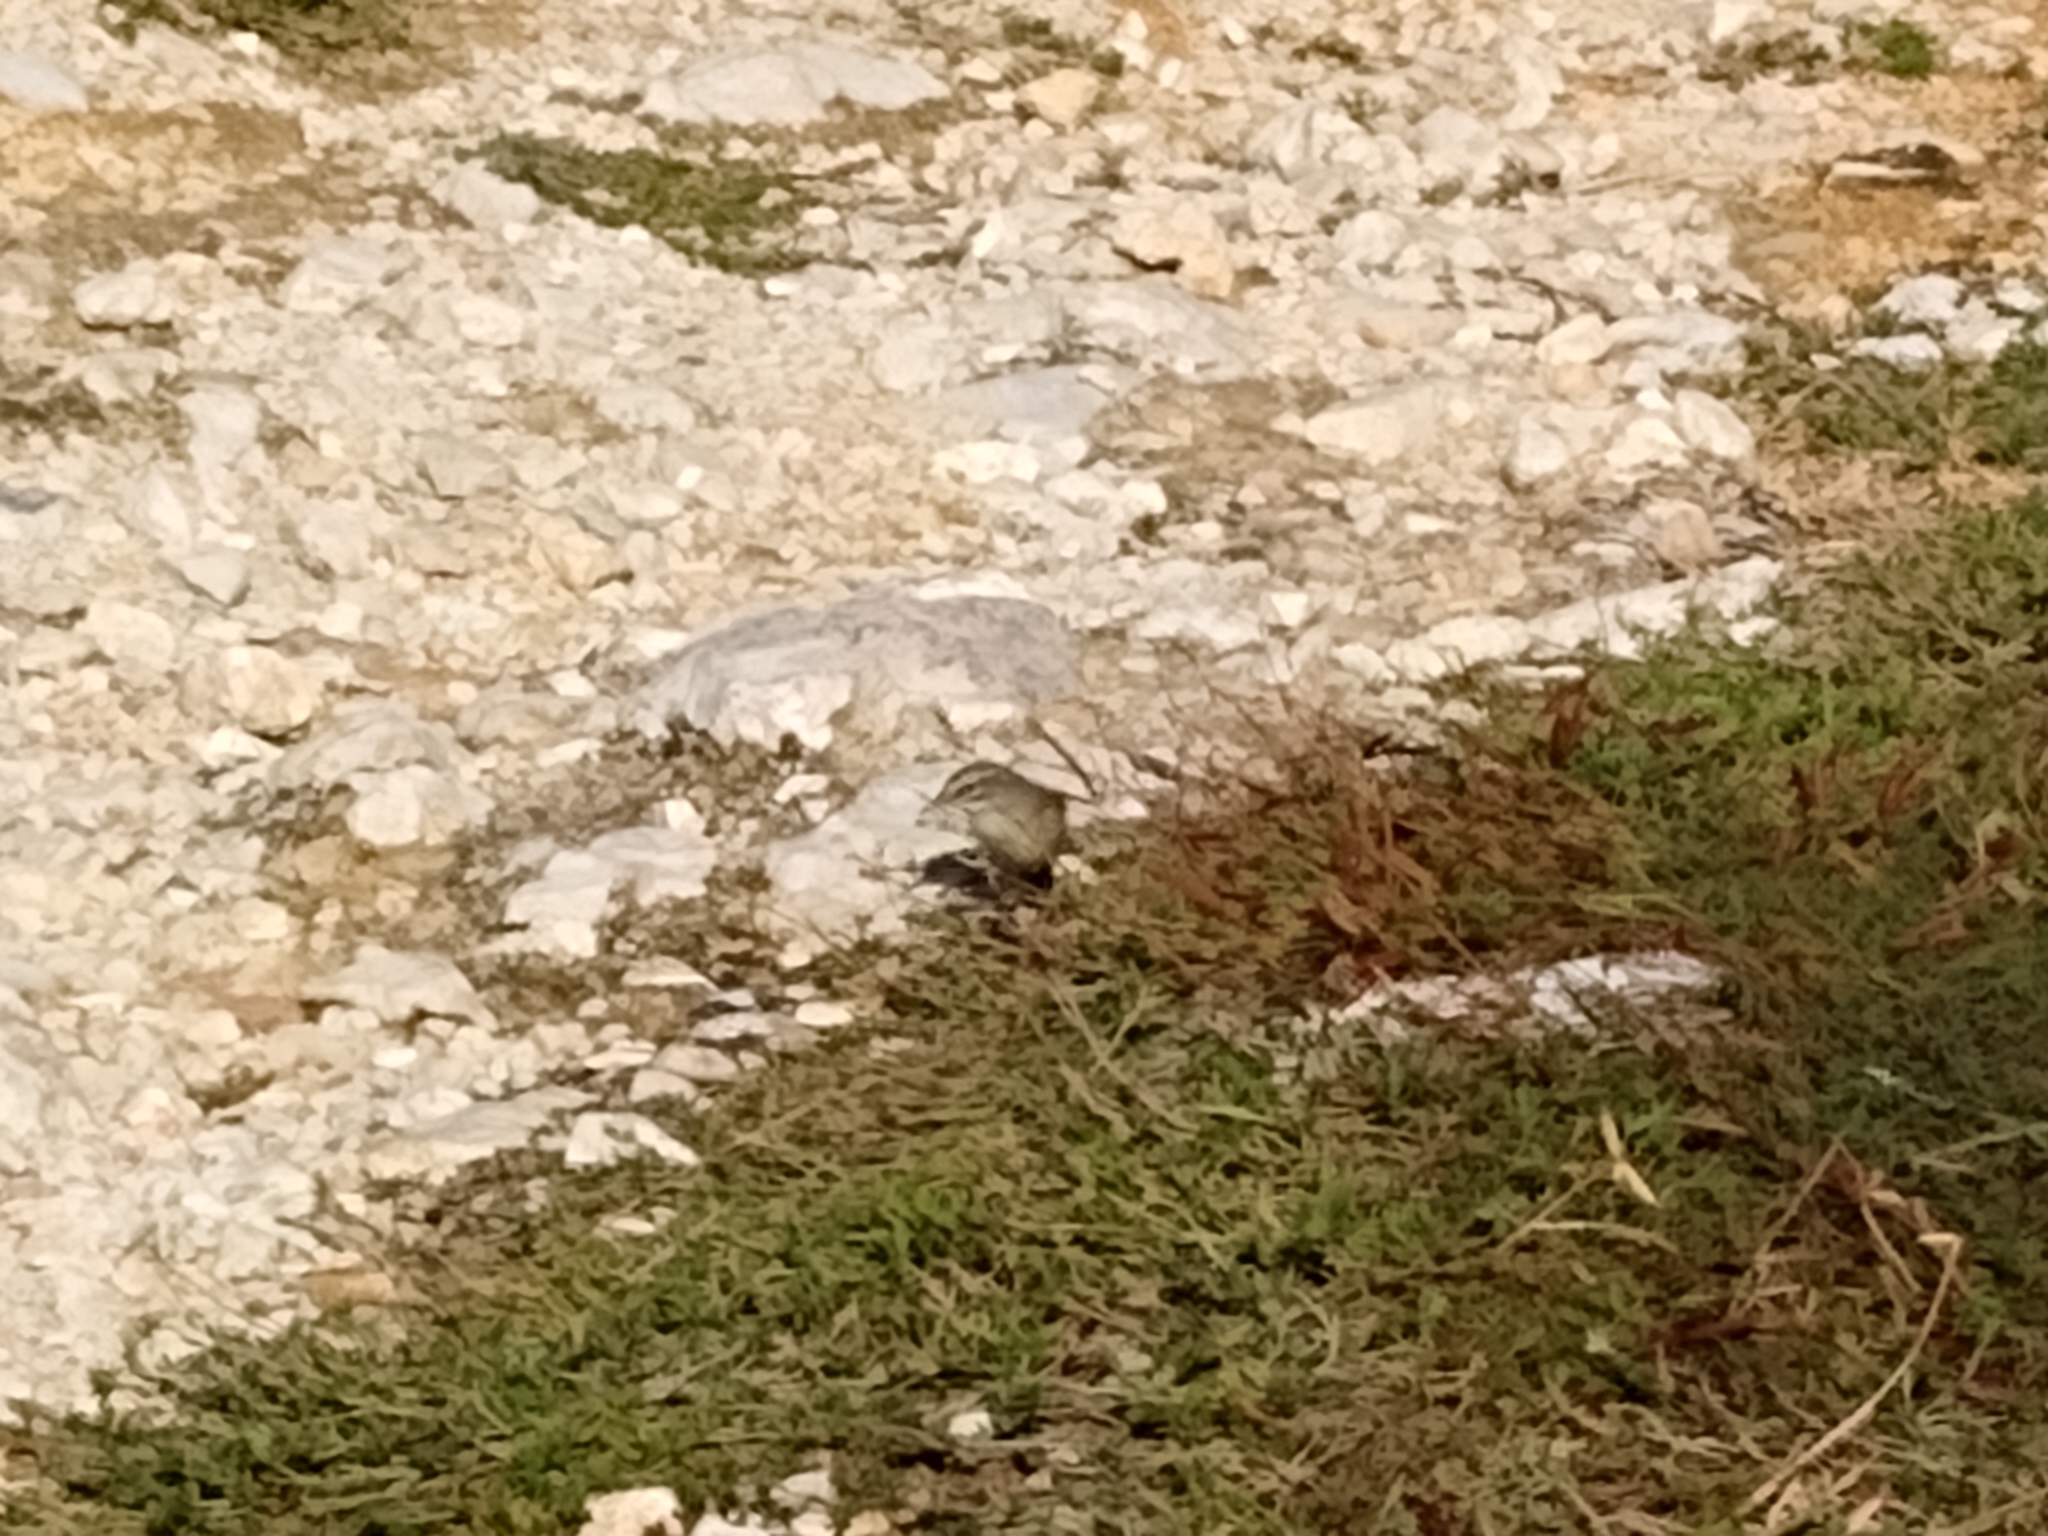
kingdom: Animalia
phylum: Chordata
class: Aves
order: Passeriformes
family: Parulidae
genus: Setophaga
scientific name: Setophaga palmarum
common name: Palm warbler
